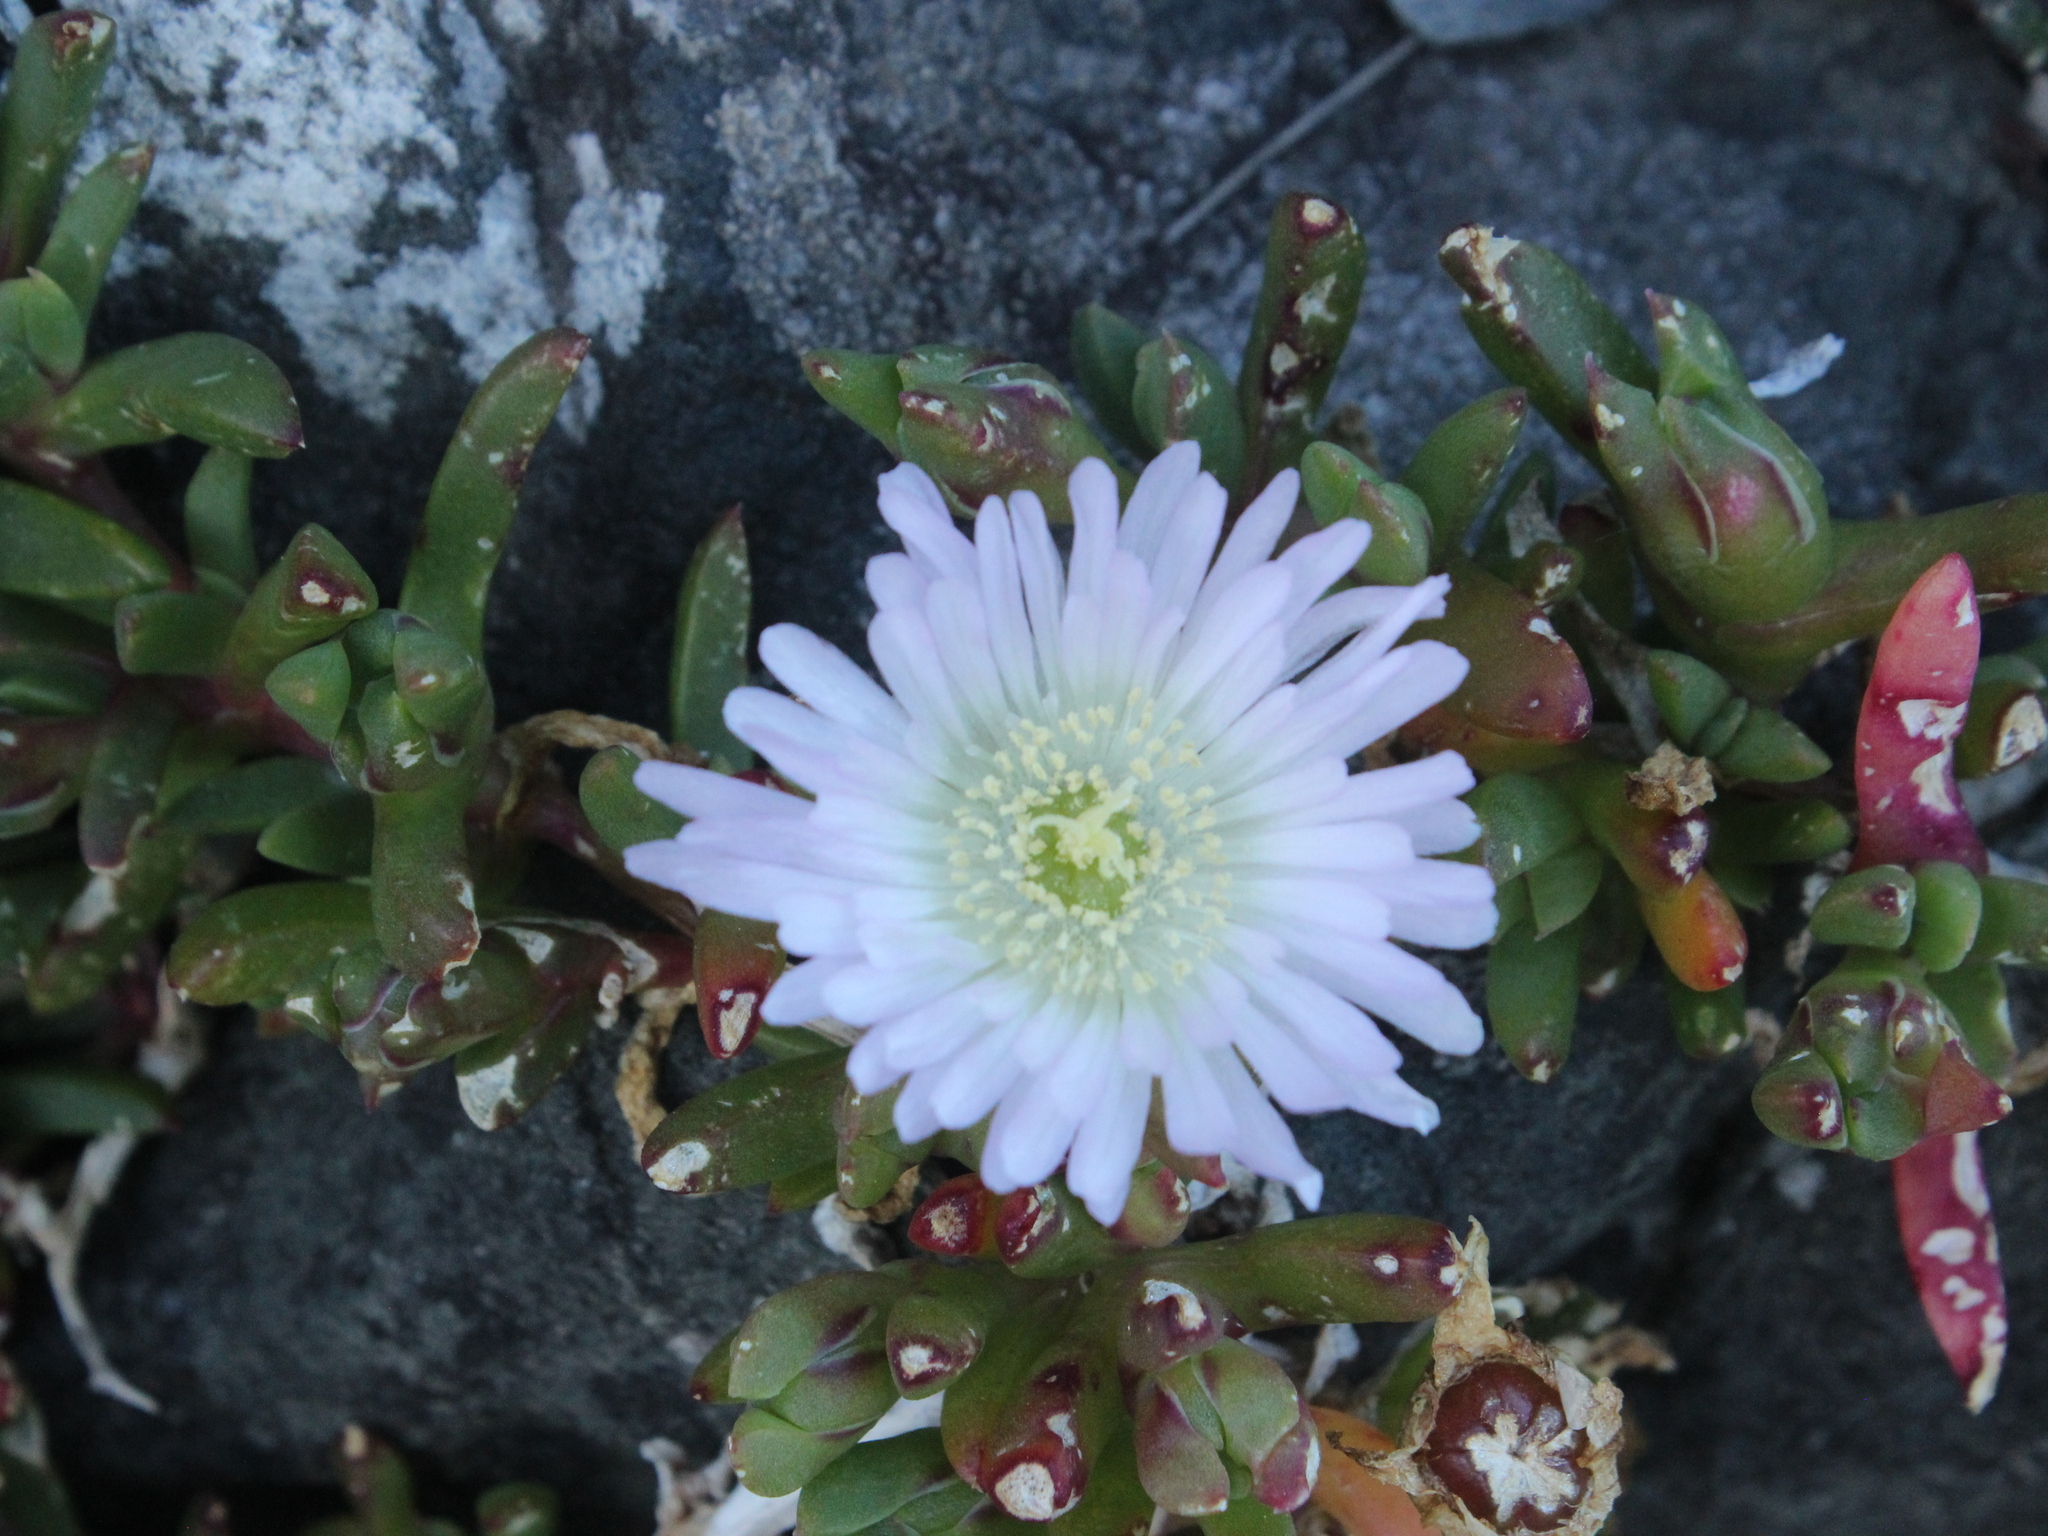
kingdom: Plantae
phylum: Tracheophyta
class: Magnoliopsida
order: Caryophyllales
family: Aizoaceae
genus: Disphyma
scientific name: Disphyma australe
